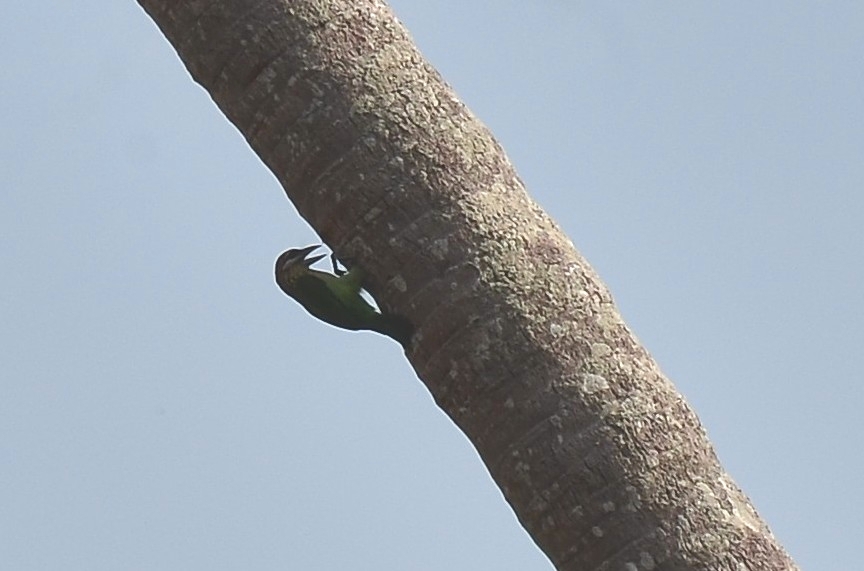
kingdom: Animalia
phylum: Chordata
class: Aves
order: Piciformes
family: Megalaimidae
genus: Psilopogon
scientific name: Psilopogon viridis
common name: White-cheeked barbet
